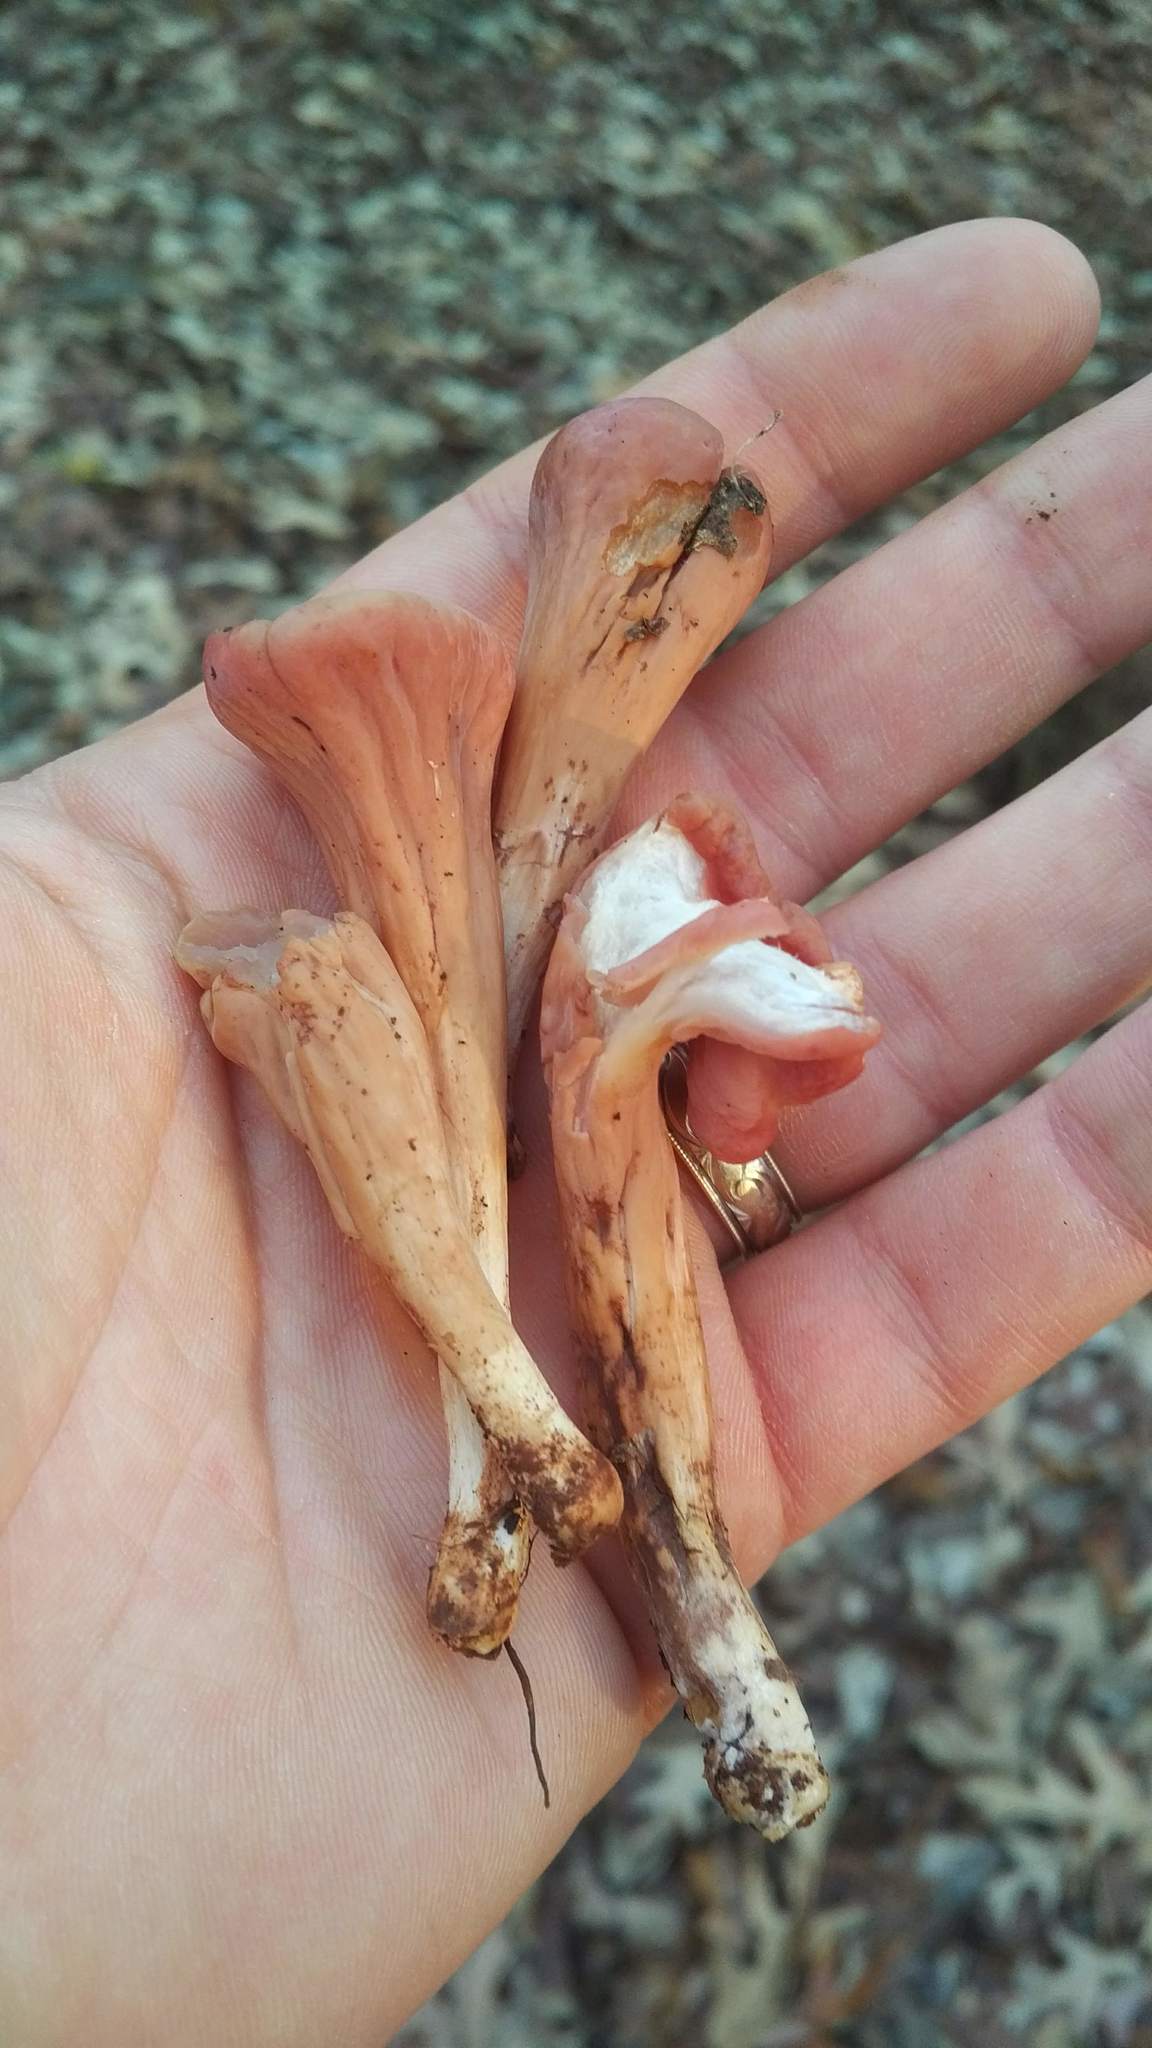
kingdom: Fungi
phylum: Basidiomycota
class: Agaricomycetes
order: Gomphales
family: Clavariadelphaceae
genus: Clavariadelphus
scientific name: Clavariadelphus truncatus
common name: Truncated club
